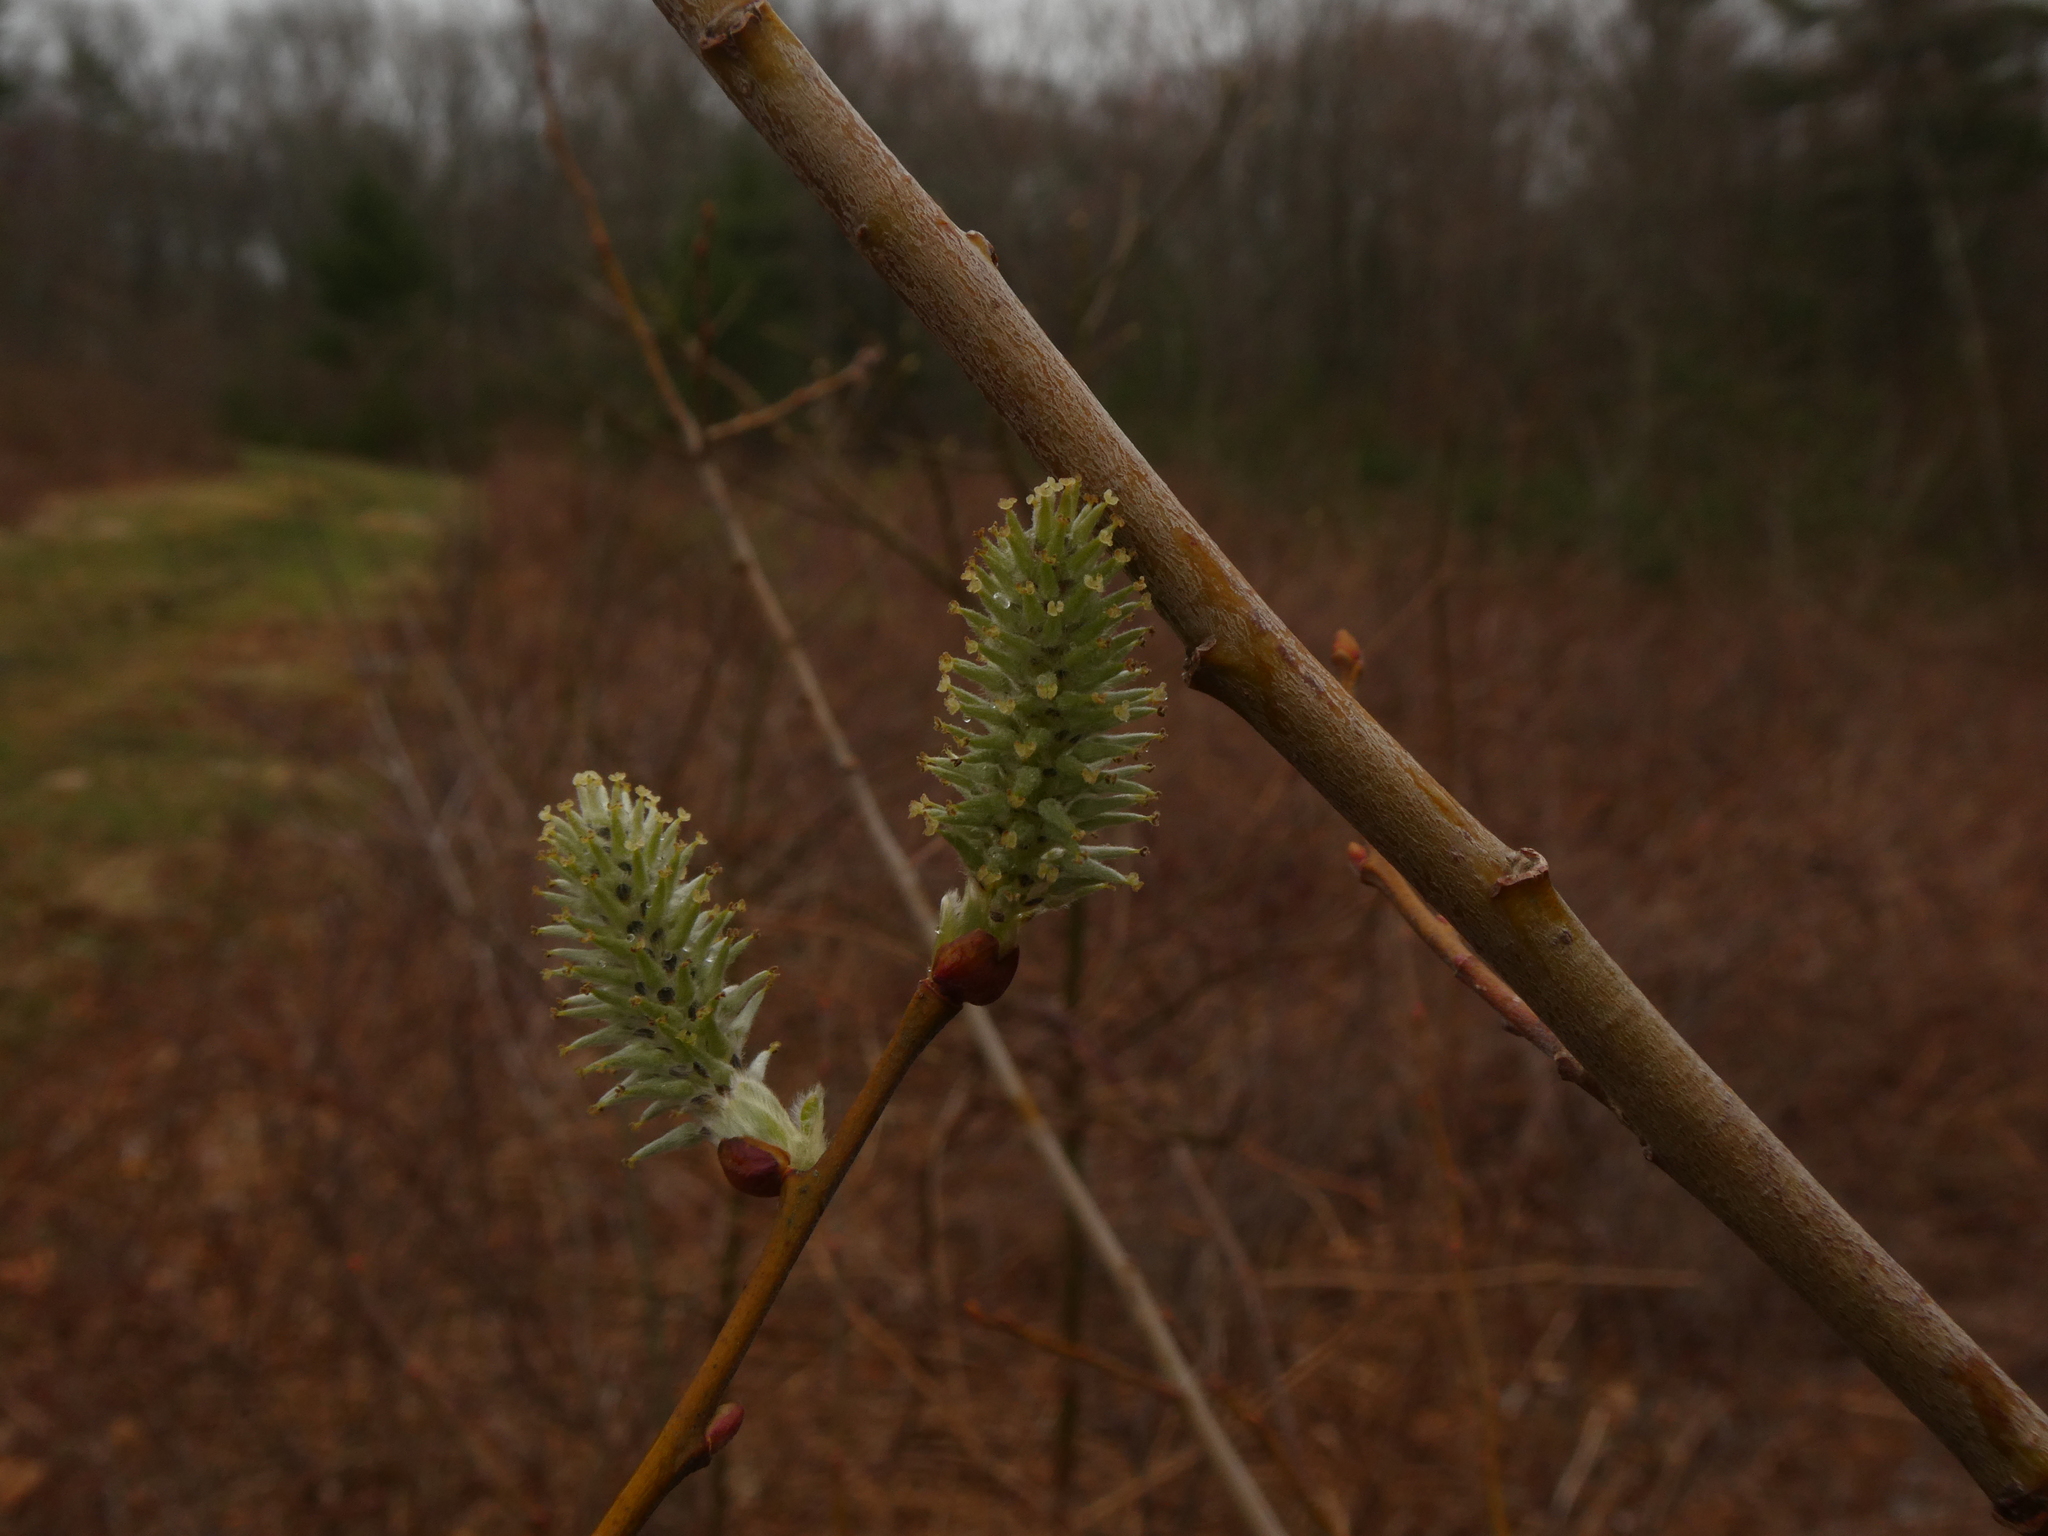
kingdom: Plantae
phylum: Tracheophyta
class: Magnoliopsida
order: Malpighiales
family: Salicaceae
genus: Salix
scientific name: Salix cinerea
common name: Common sallow
